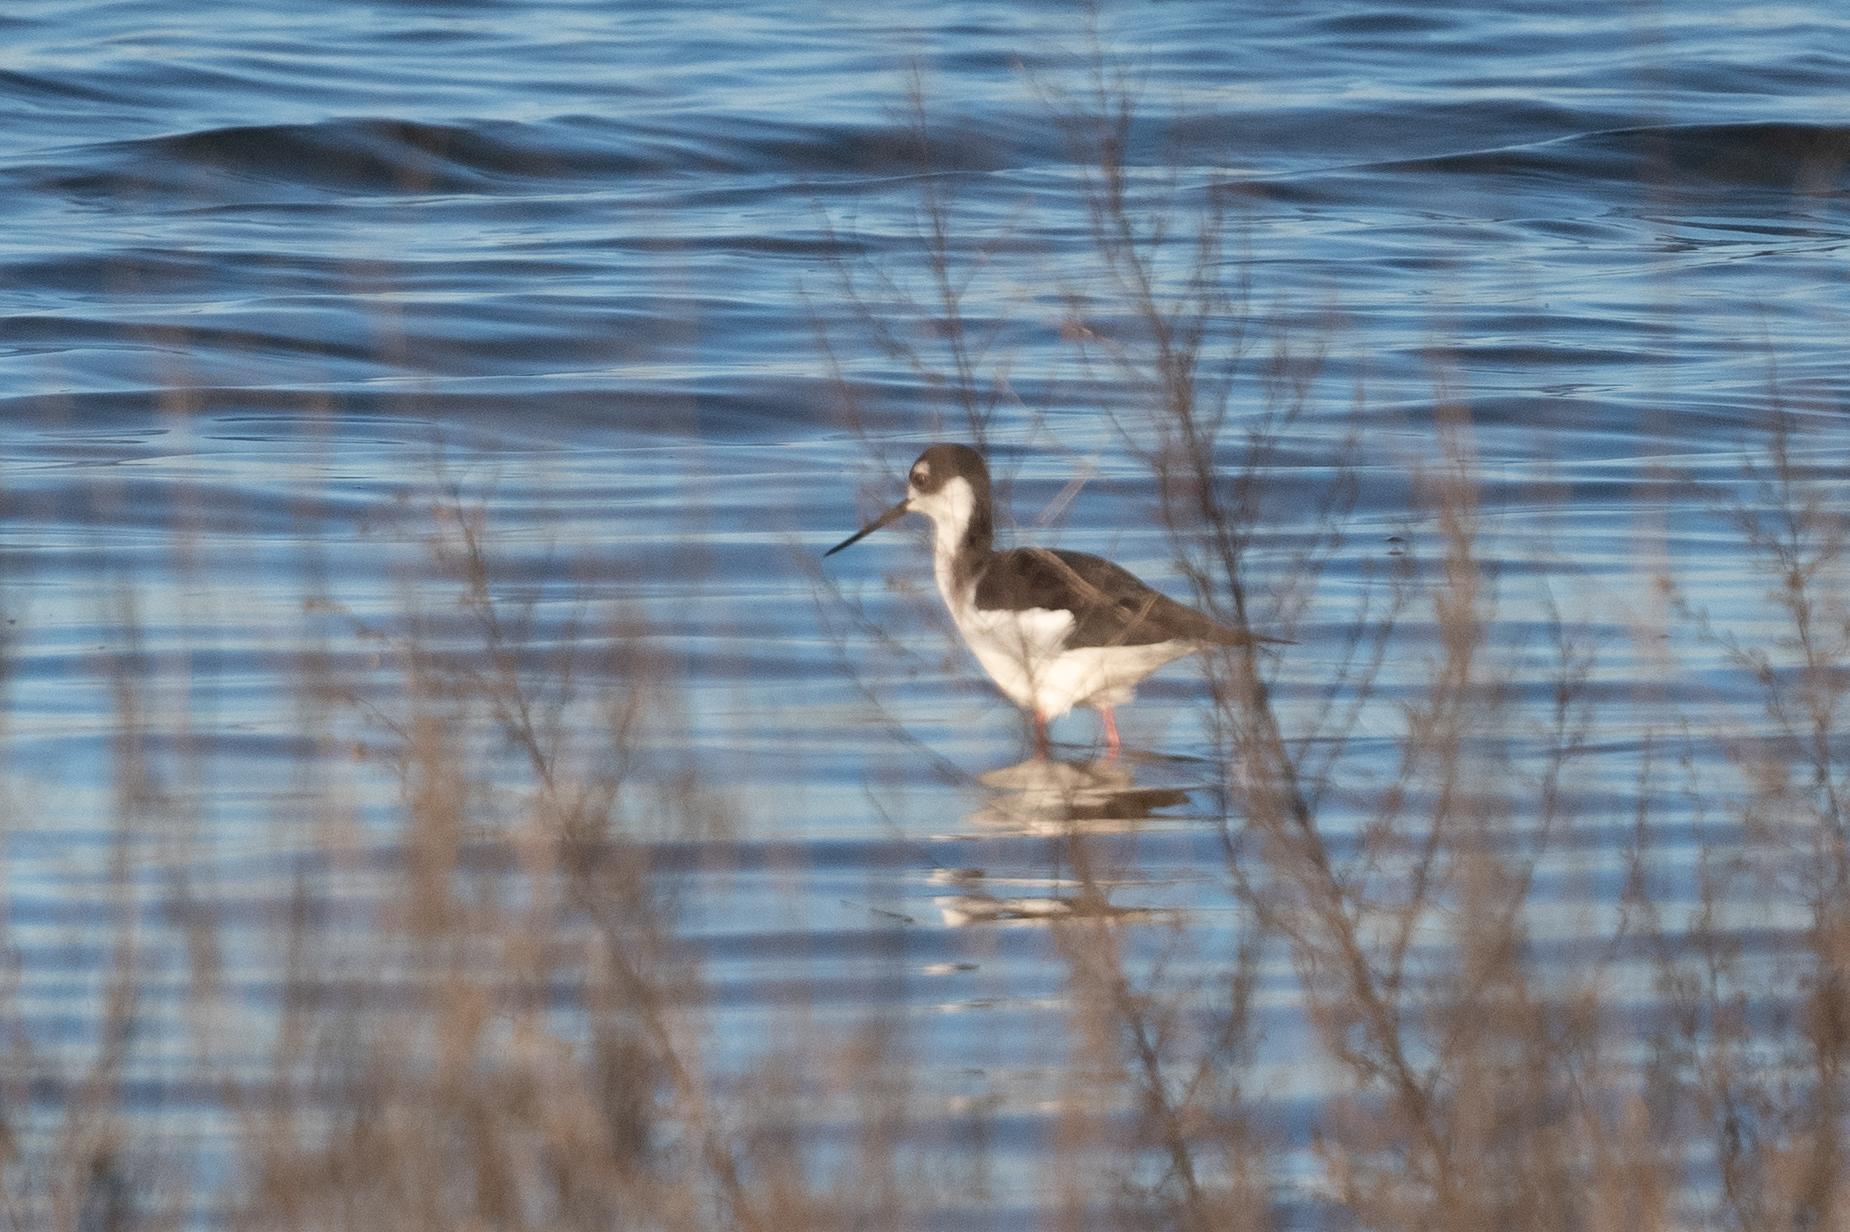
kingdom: Animalia
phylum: Chordata
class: Aves
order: Charadriiformes
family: Recurvirostridae
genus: Himantopus
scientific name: Himantopus mexicanus
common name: Black-necked stilt
